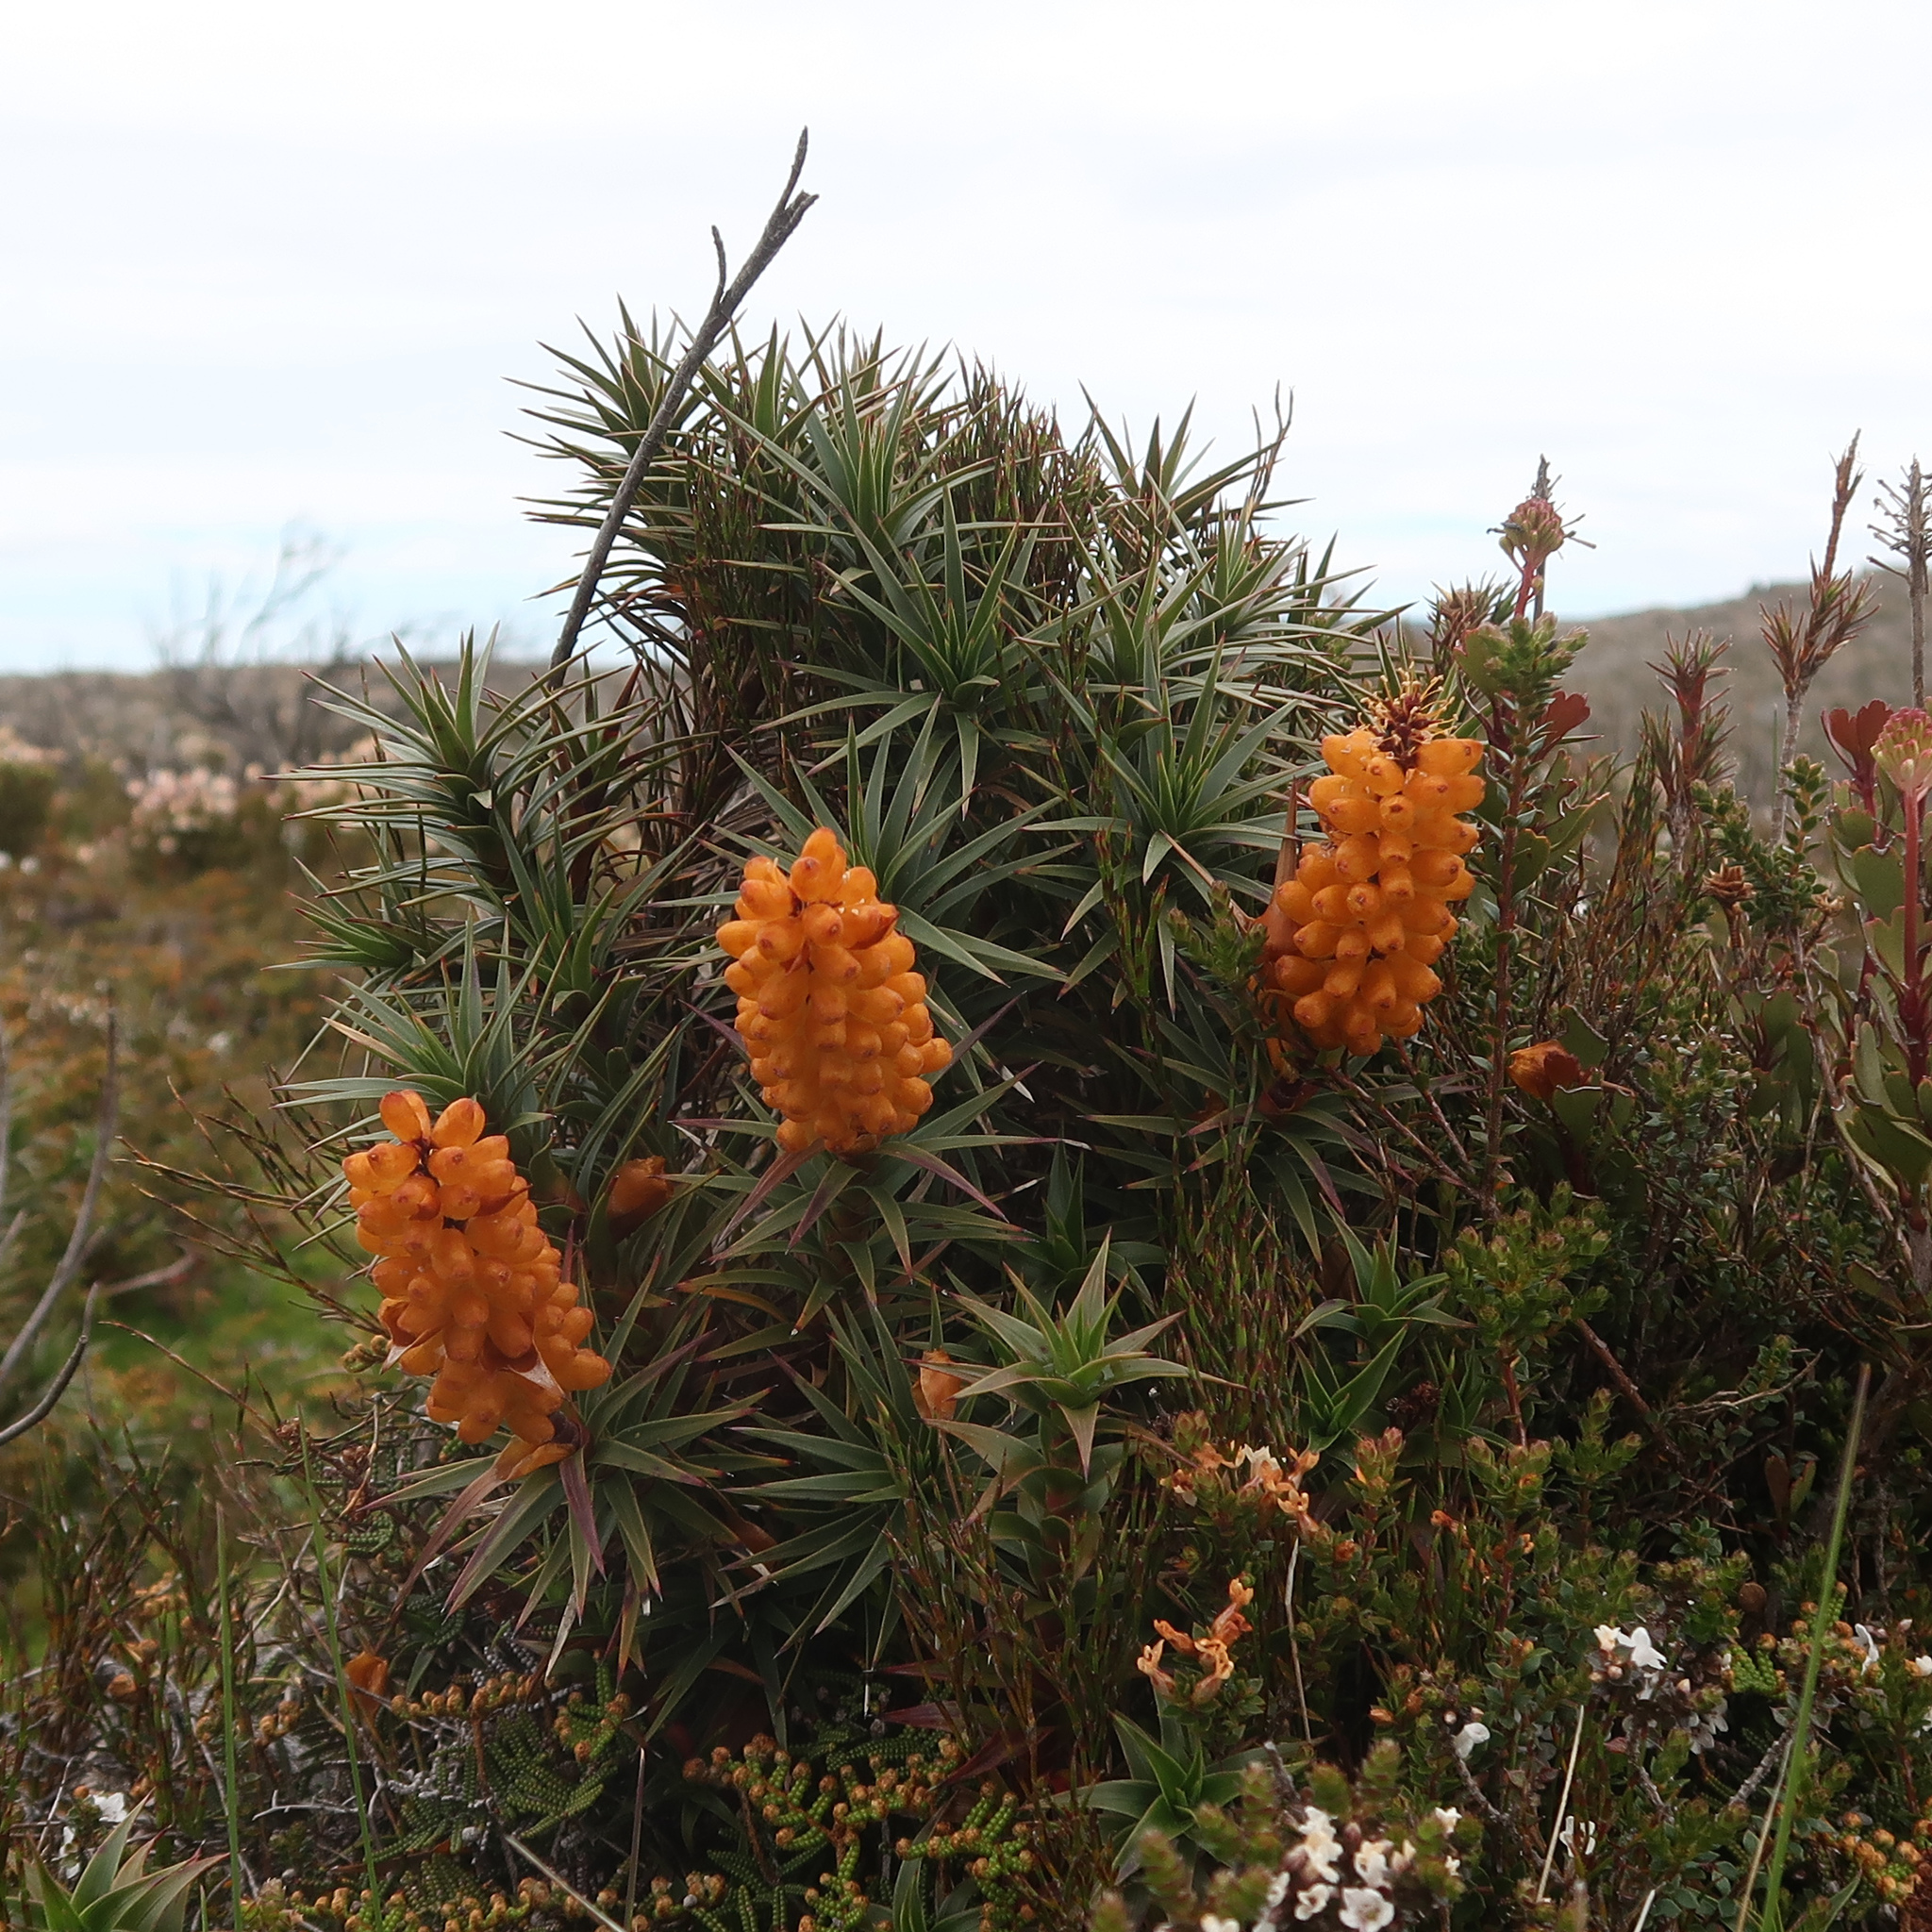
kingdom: Plantae
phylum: Tracheophyta
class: Magnoliopsida
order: Ericales
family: Ericaceae
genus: Dracophyllum
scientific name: Dracophyllum persistentifolium
